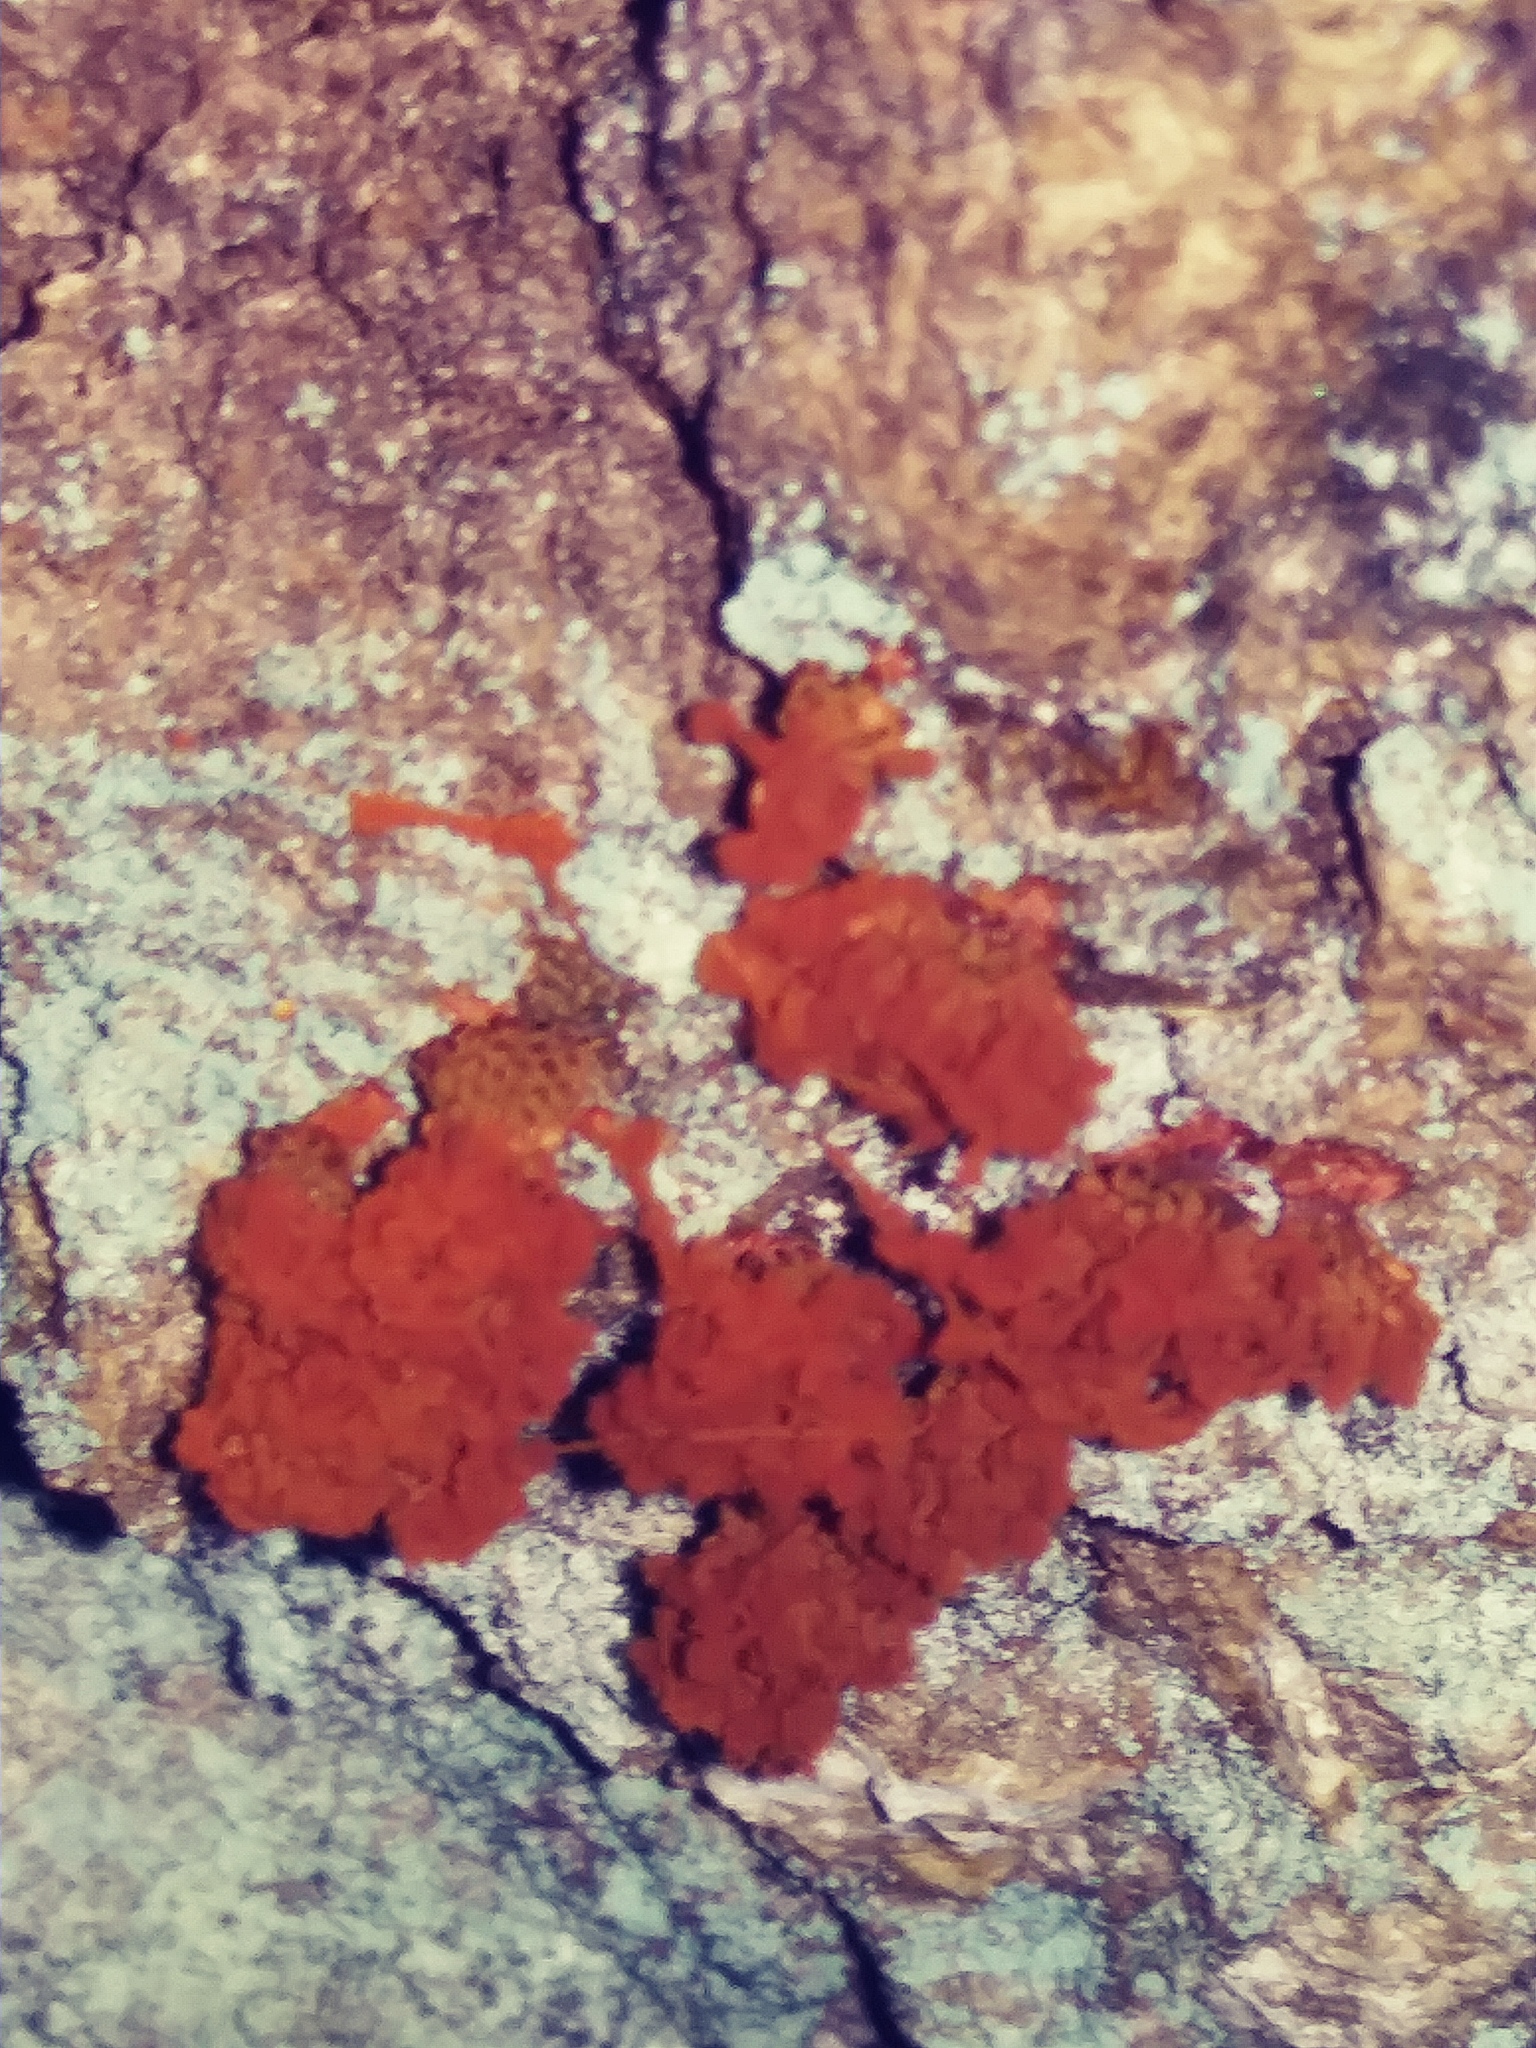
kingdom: Protozoa
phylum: Mycetozoa
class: Myxomycetes
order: Trichiales
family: Trichiaceae
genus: Metatrichia
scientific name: Metatrichia vesparia
